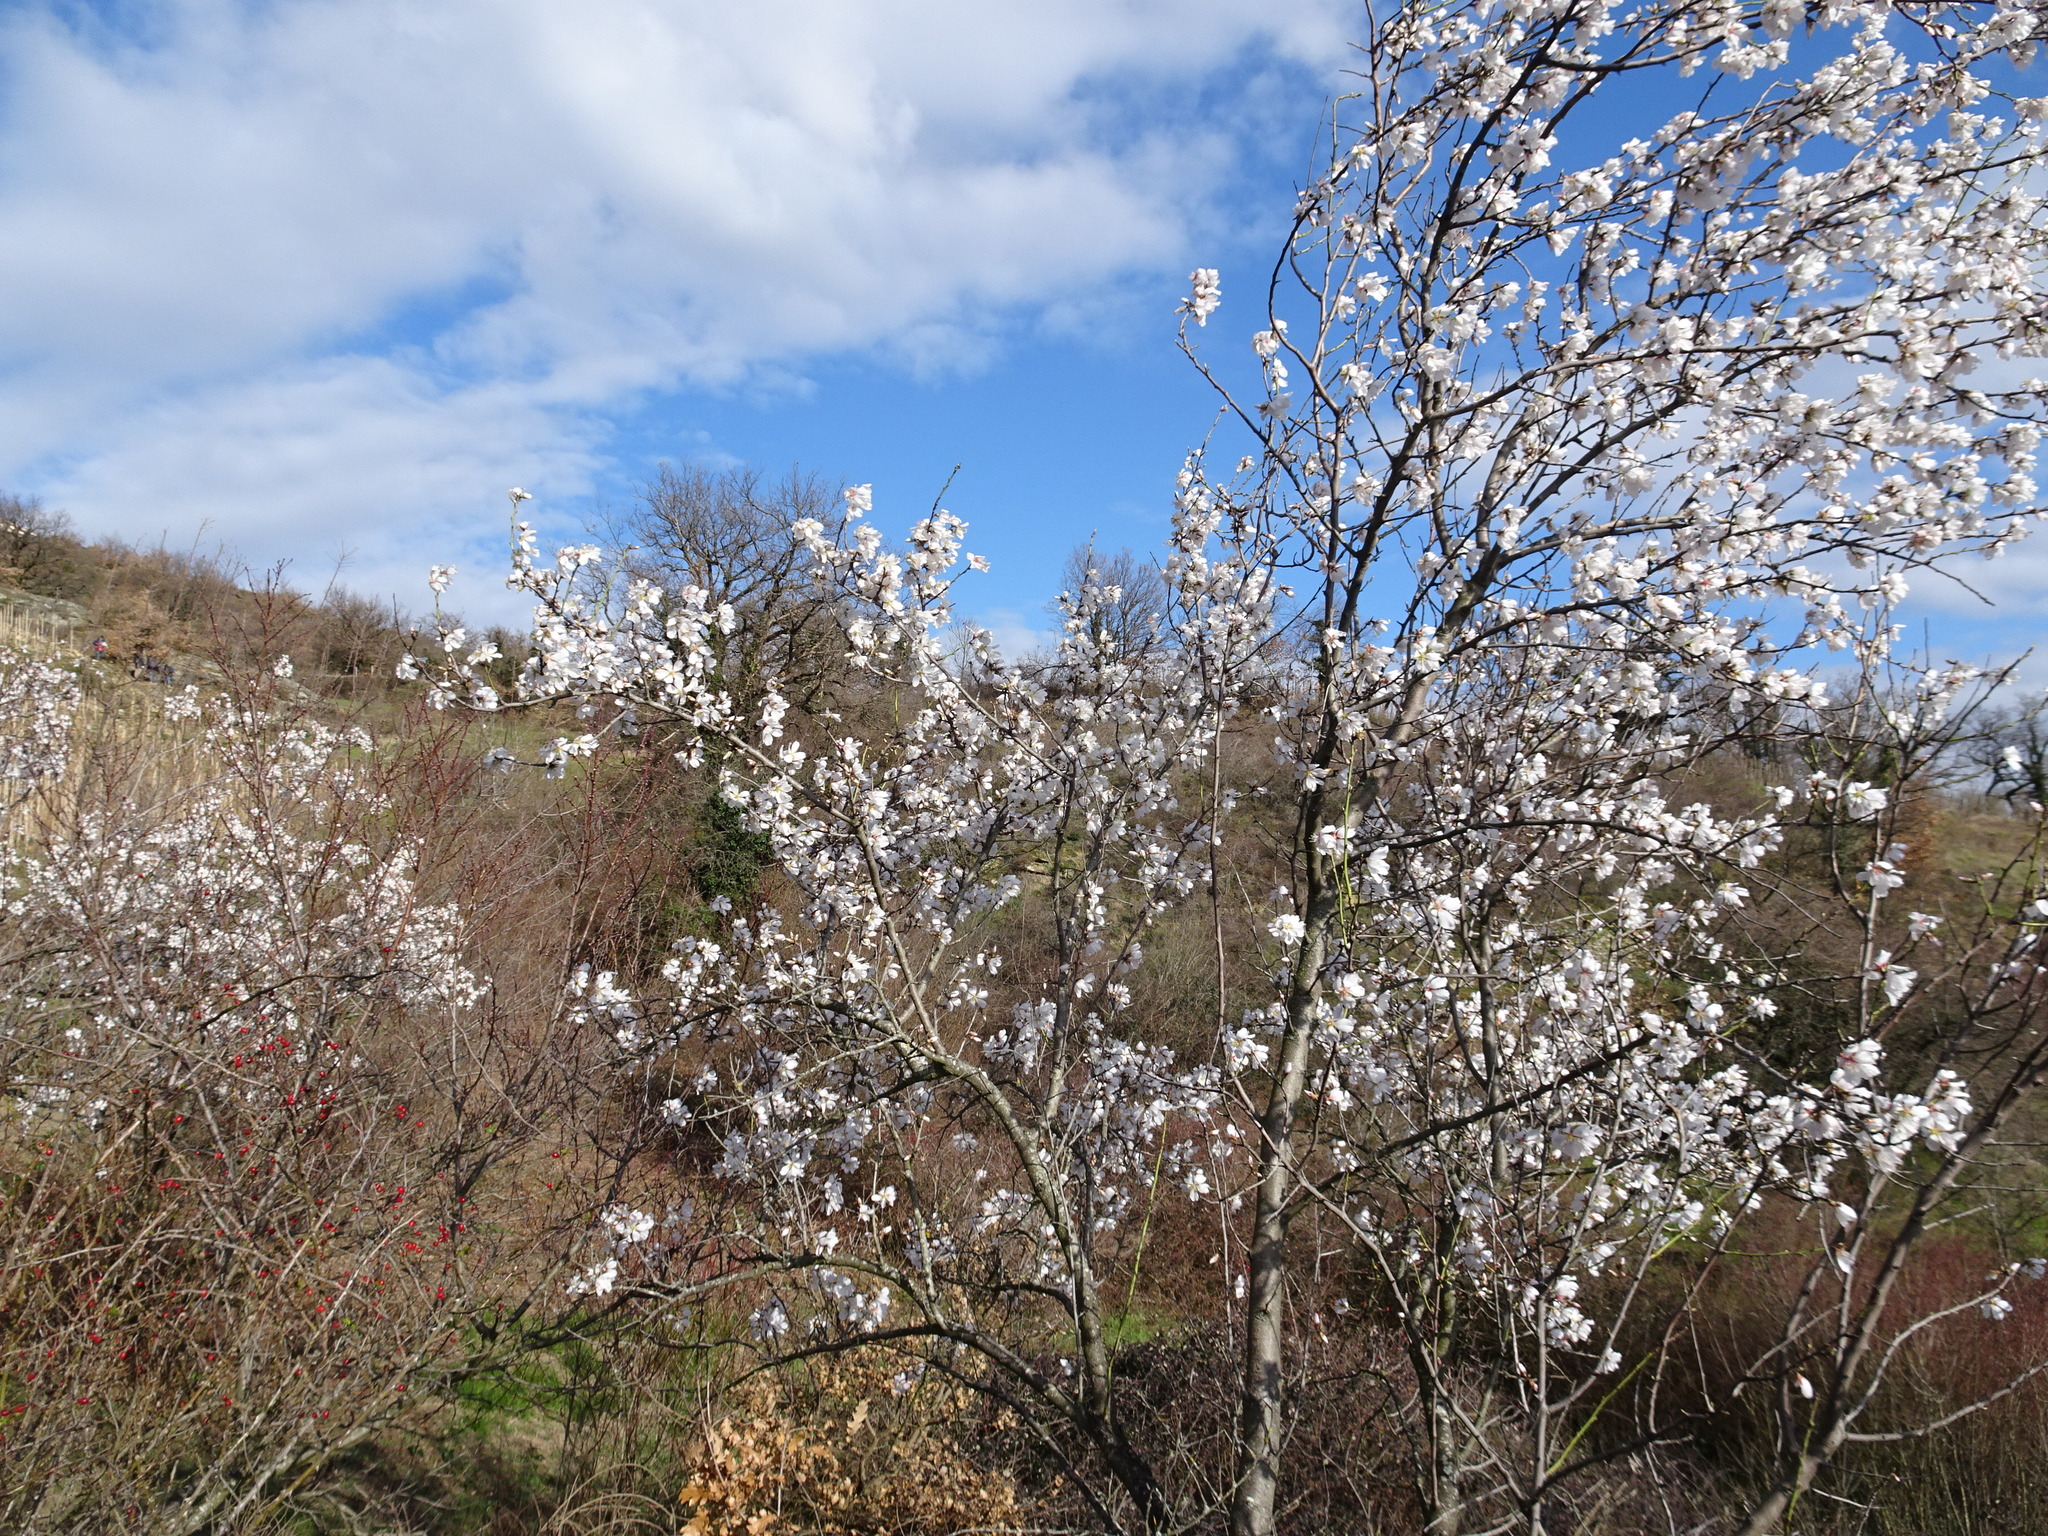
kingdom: Plantae
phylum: Tracheophyta
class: Magnoliopsida
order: Rosales
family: Rosaceae
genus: Prunus
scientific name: Prunus amygdalus
